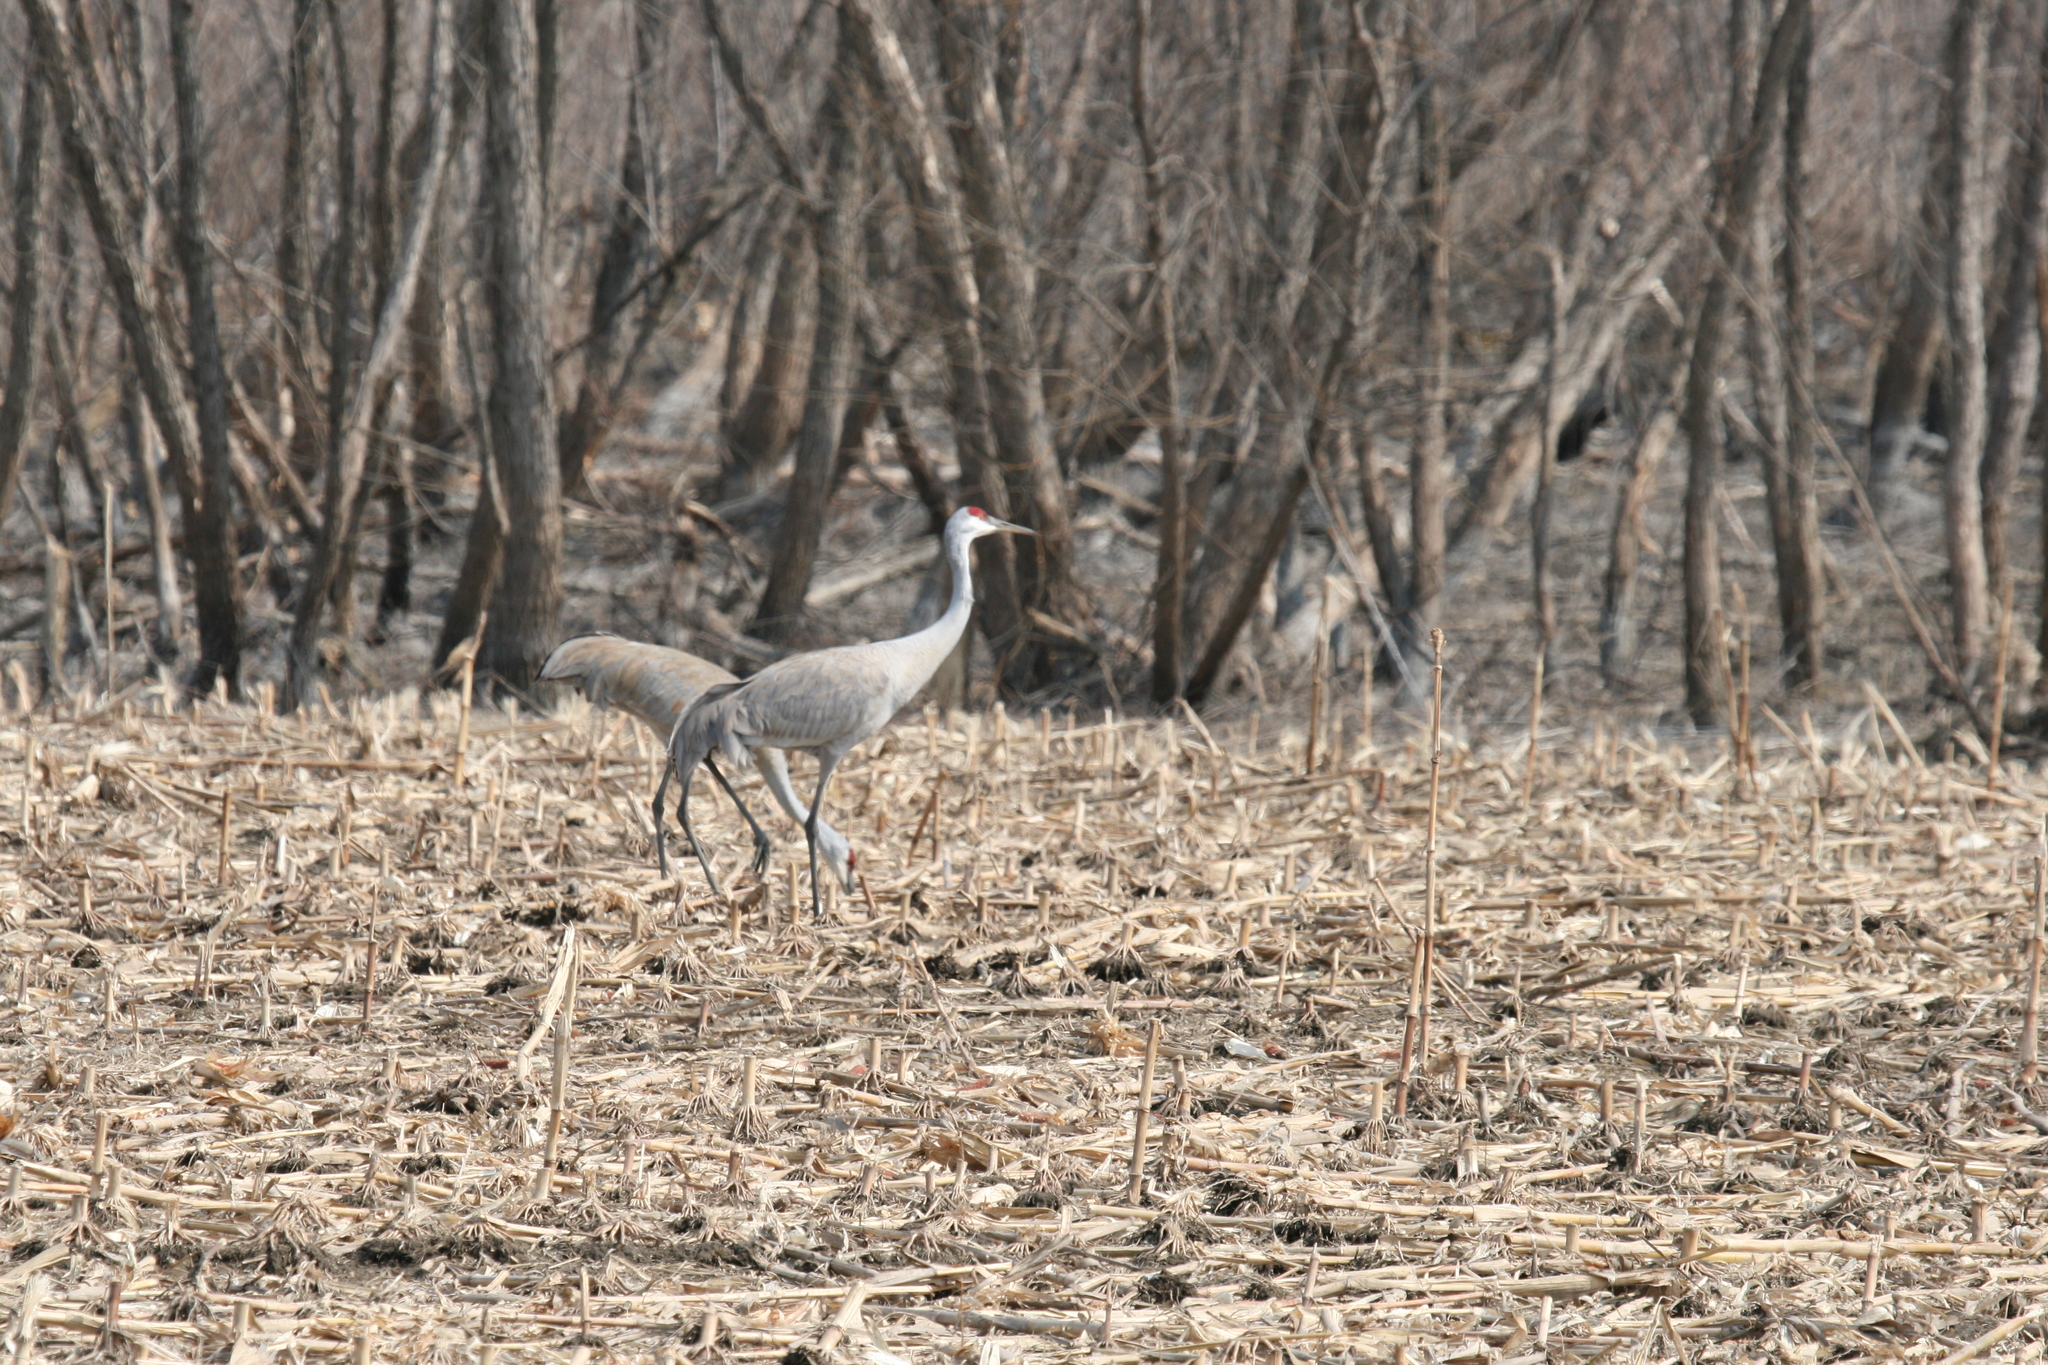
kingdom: Animalia
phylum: Chordata
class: Aves
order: Gruiformes
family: Gruidae
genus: Grus
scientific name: Grus canadensis
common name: Sandhill crane
